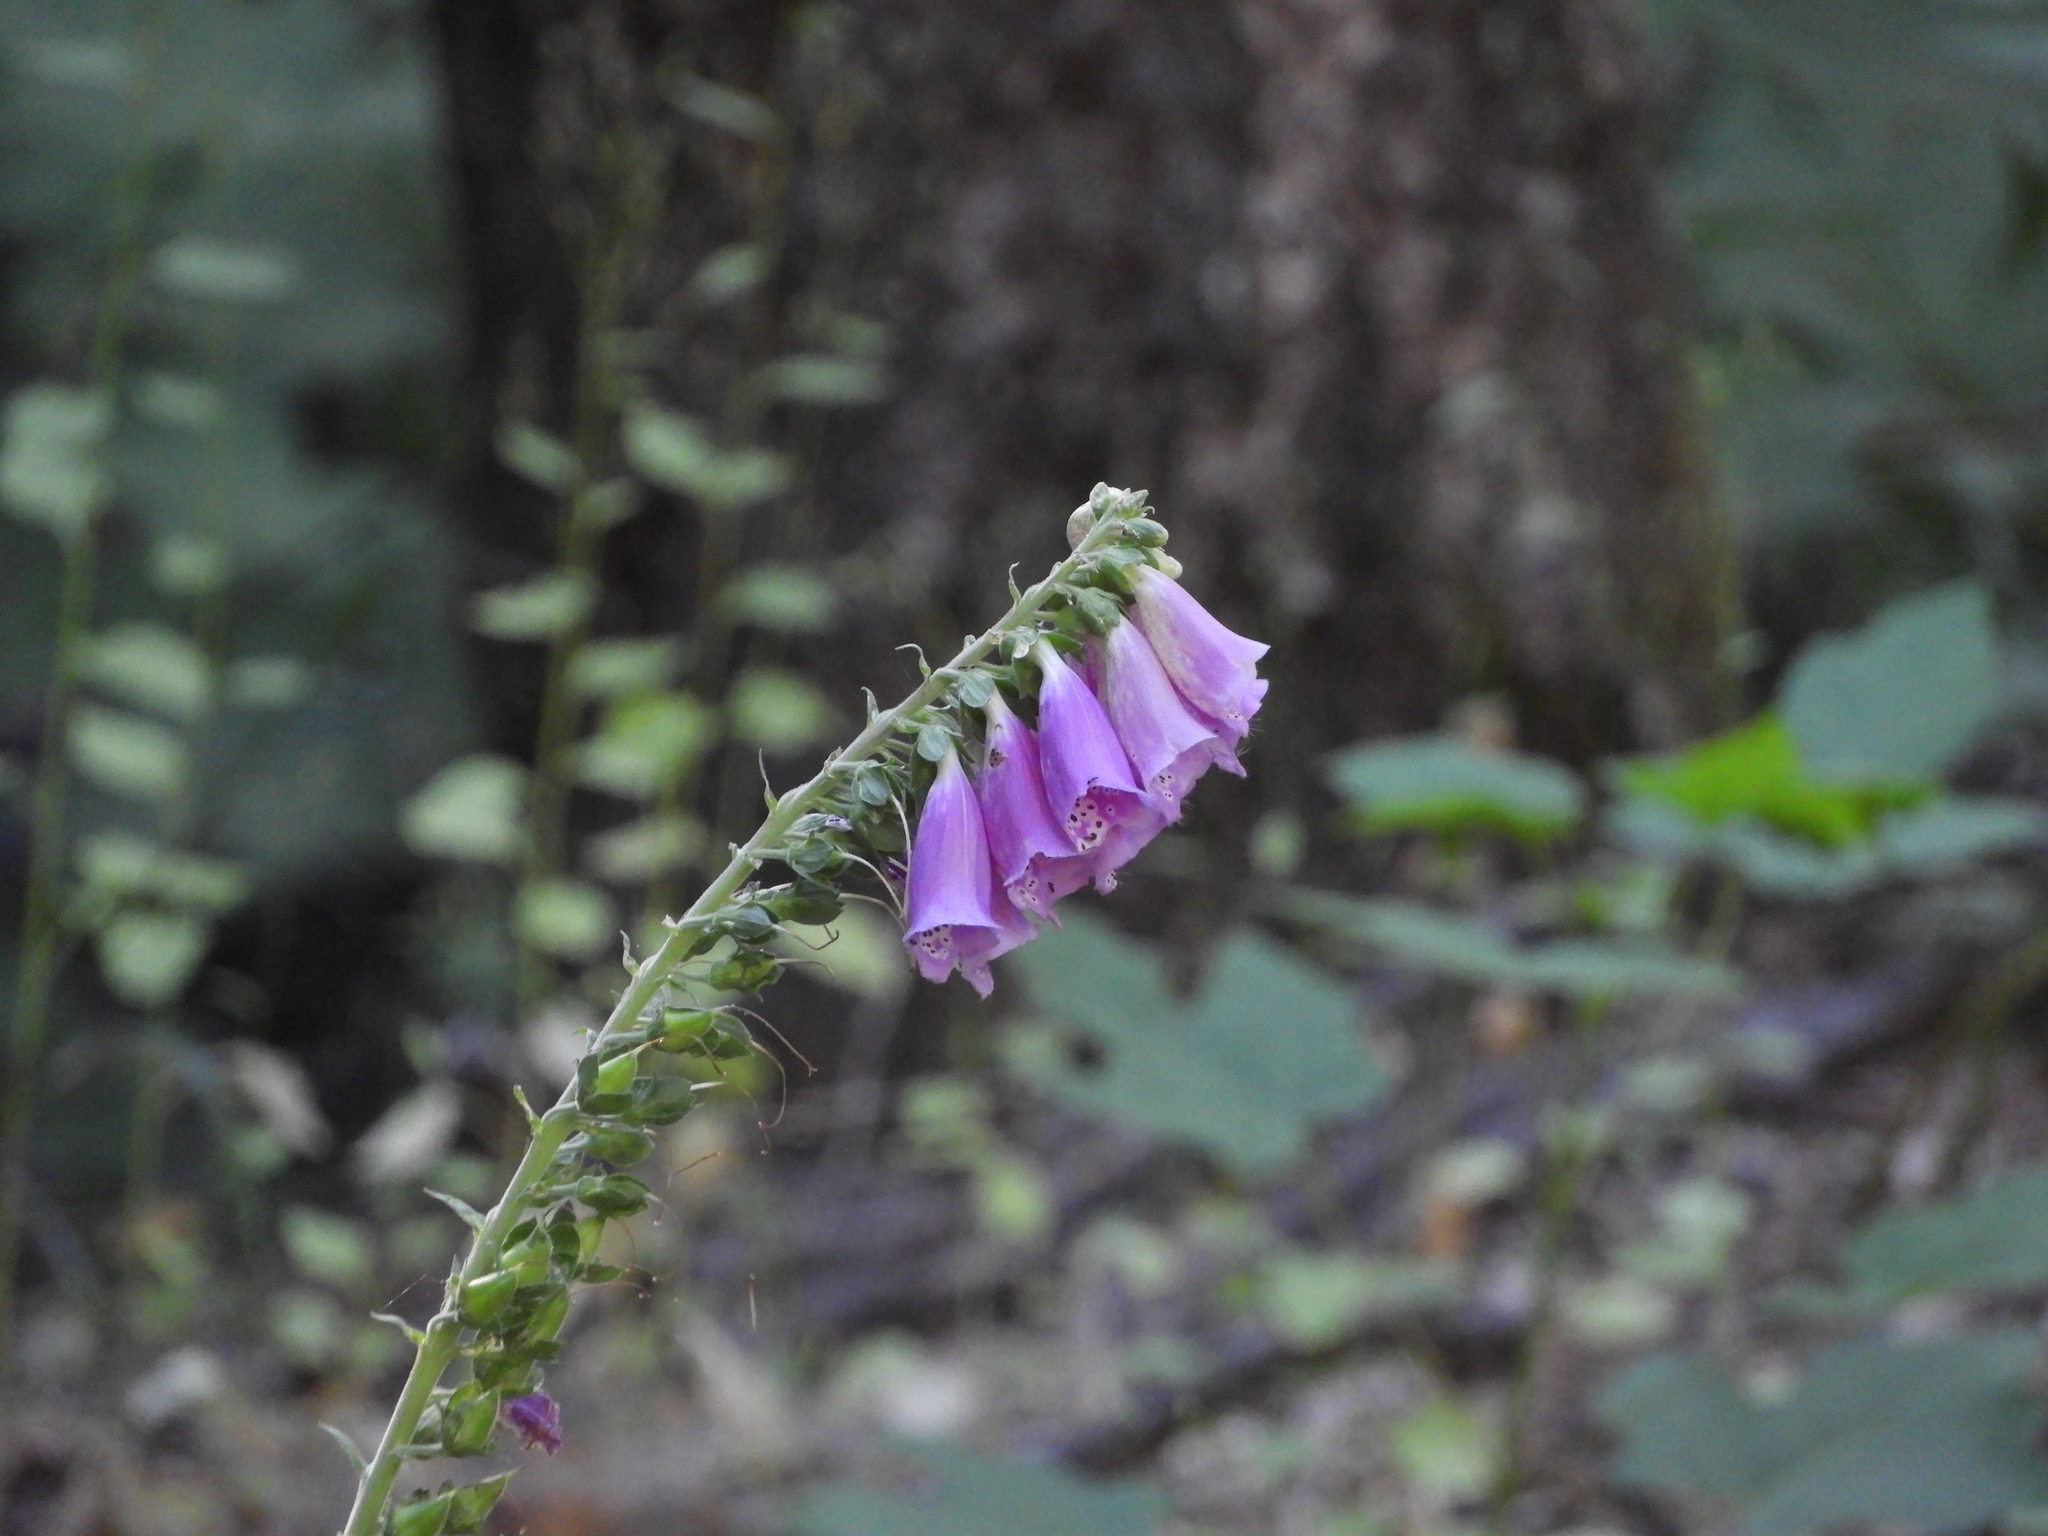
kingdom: Plantae
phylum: Tracheophyta
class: Magnoliopsida
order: Lamiales
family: Plantaginaceae
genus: Digitalis
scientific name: Digitalis purpurea
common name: Foxglove
